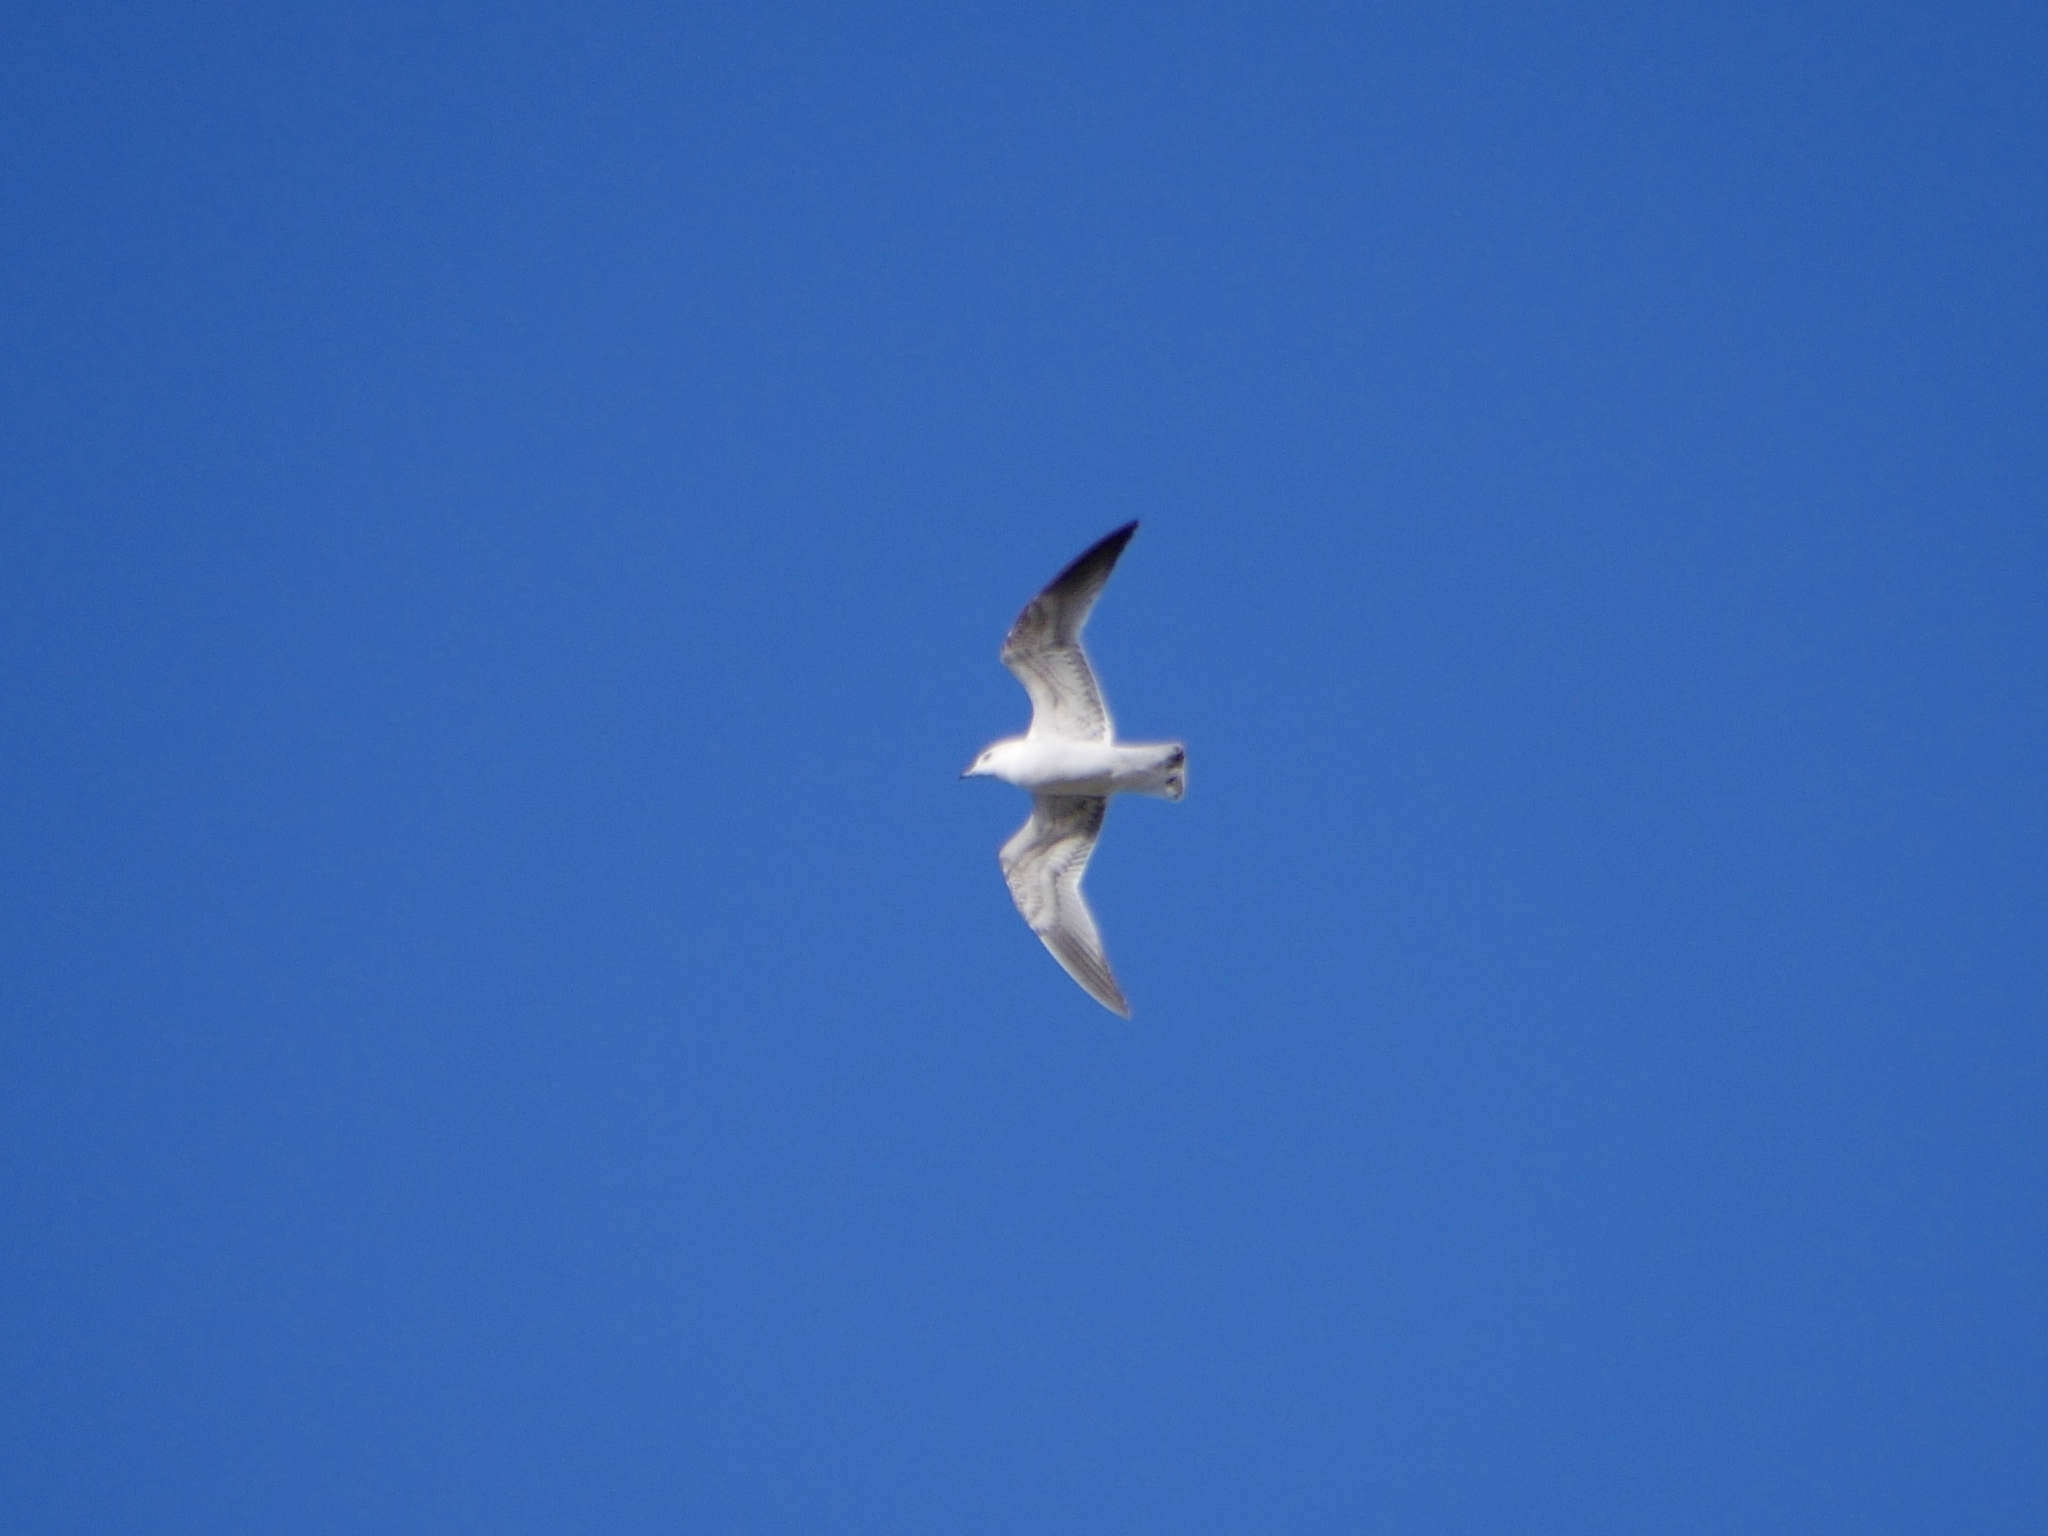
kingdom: Animalia
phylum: Chordata
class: Aves
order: Charadriiformes
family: Laridae
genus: Larus
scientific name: Larus canus
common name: Mew gull
